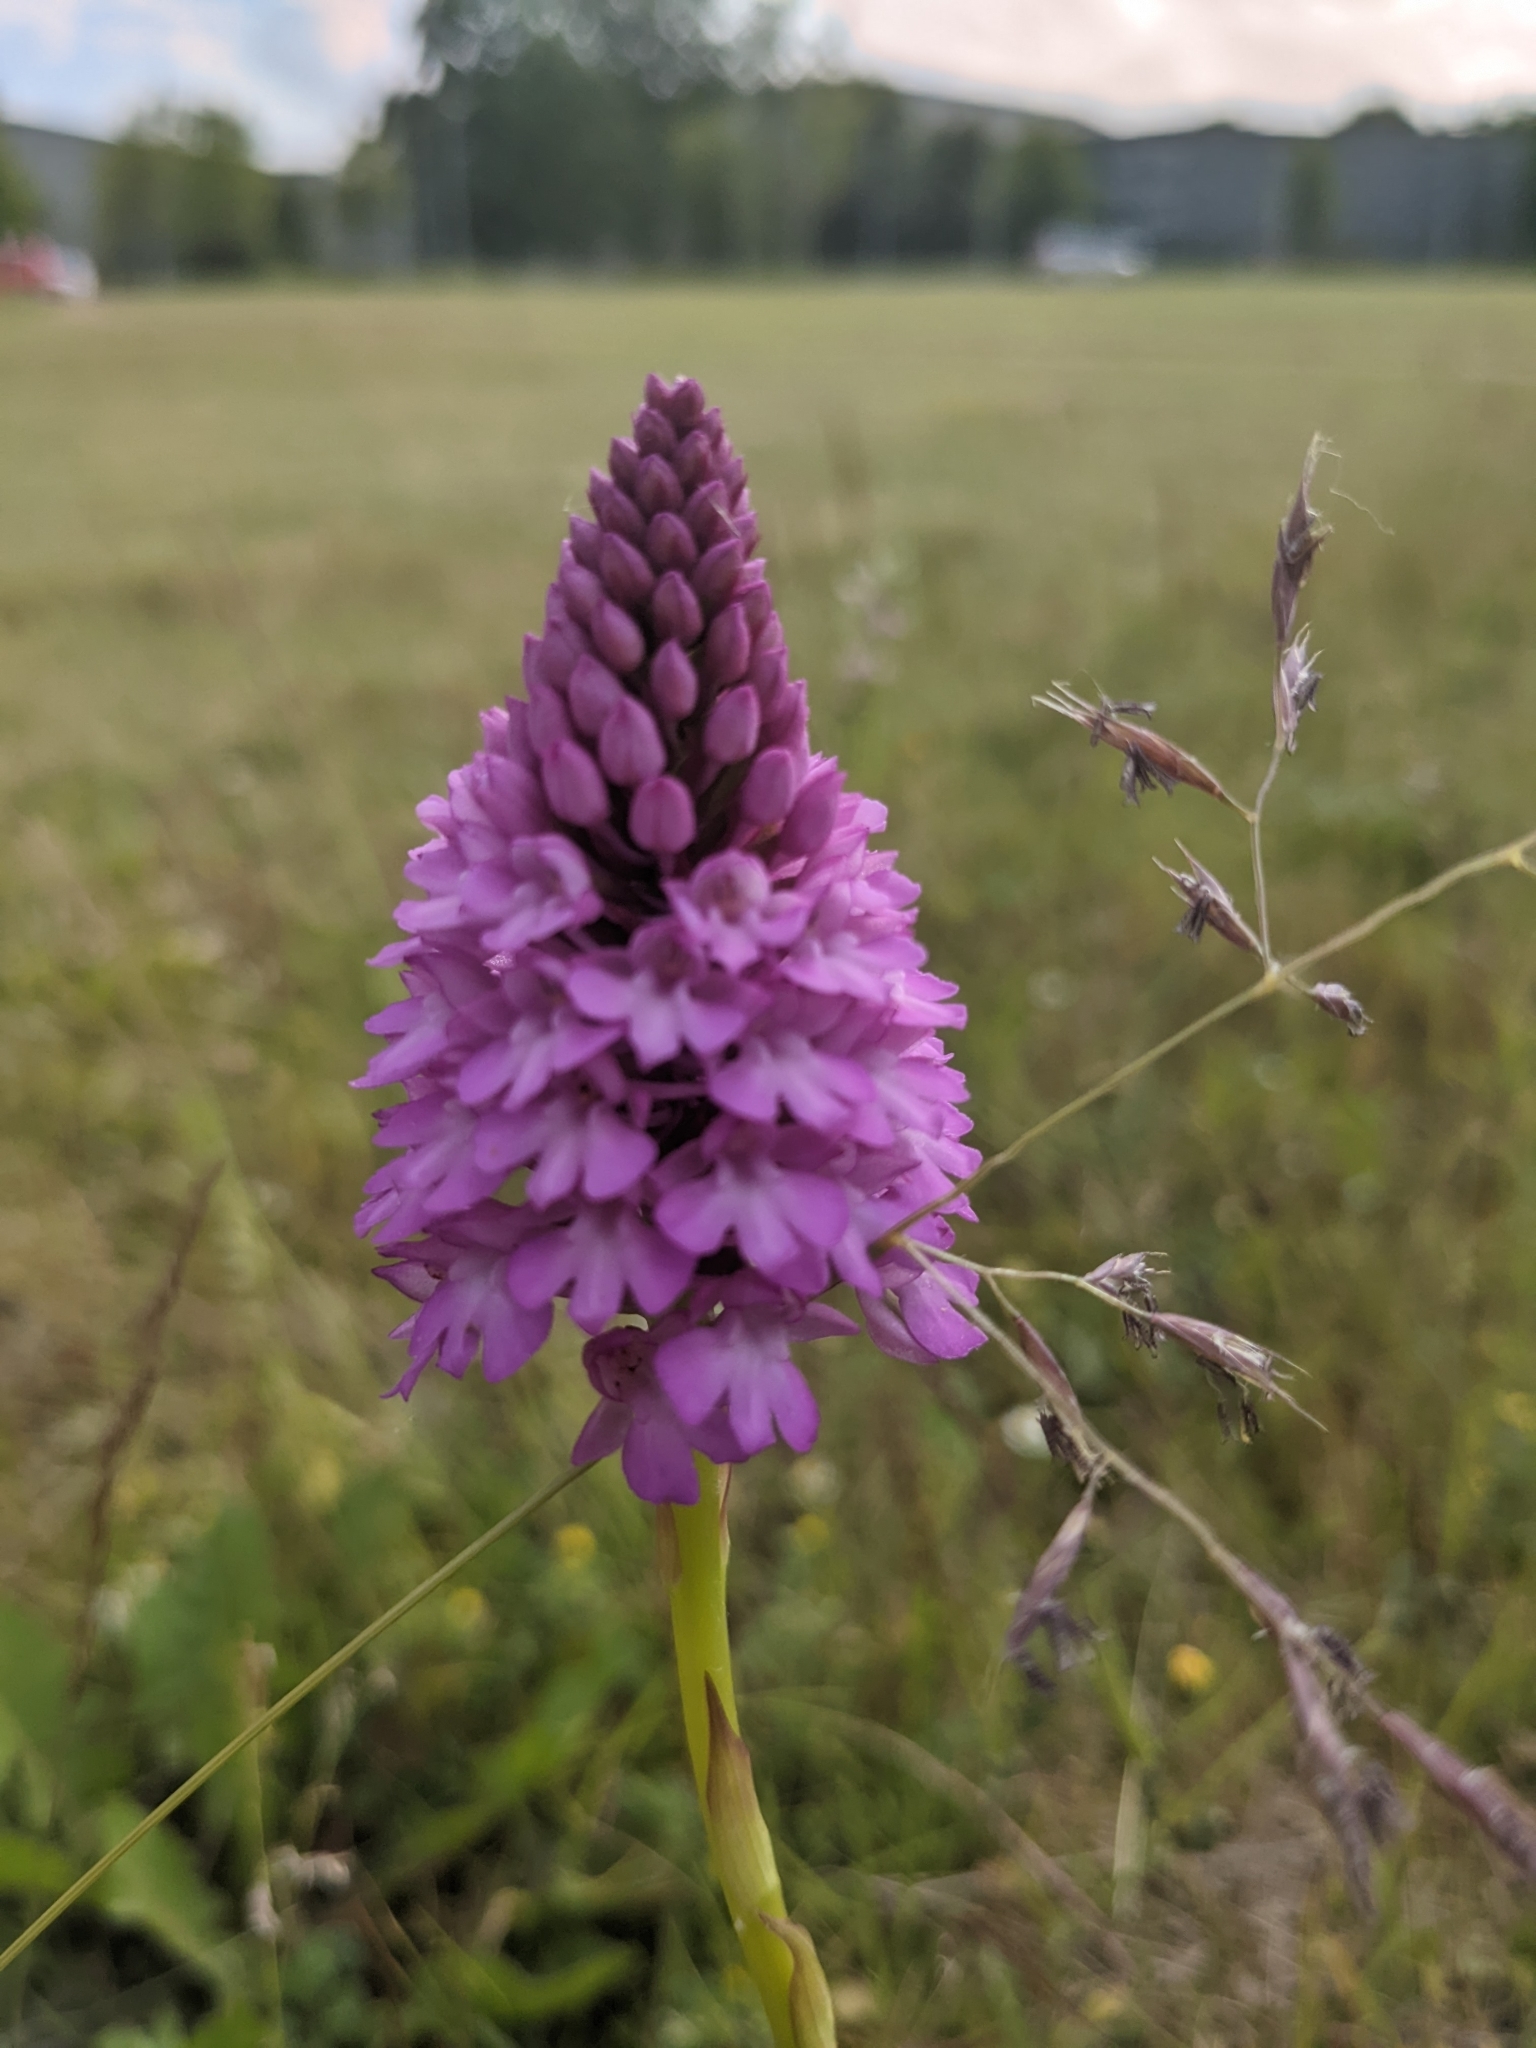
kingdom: Plantae
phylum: Tracheophyta
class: Liliopsida
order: Asparagales
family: Orchidaceae
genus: Anacamptis
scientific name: Anacamptis pyramidalis
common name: Pyramidal orchid
